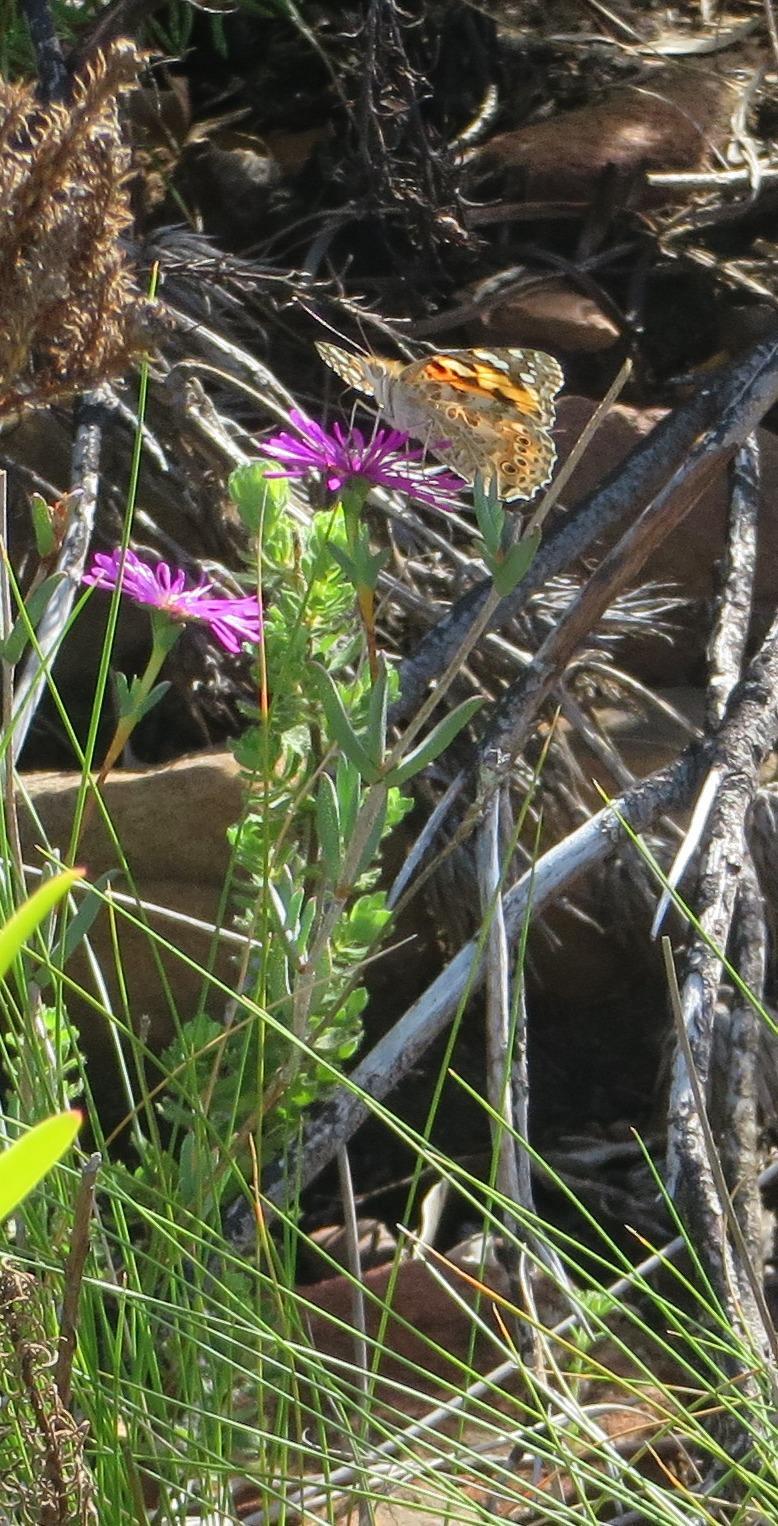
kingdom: Animalia
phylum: Arthropoda
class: Insecta
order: Lepidoptera
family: Nymphalidae
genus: Vanessa
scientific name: Vanessa cardui
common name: Painted lady
